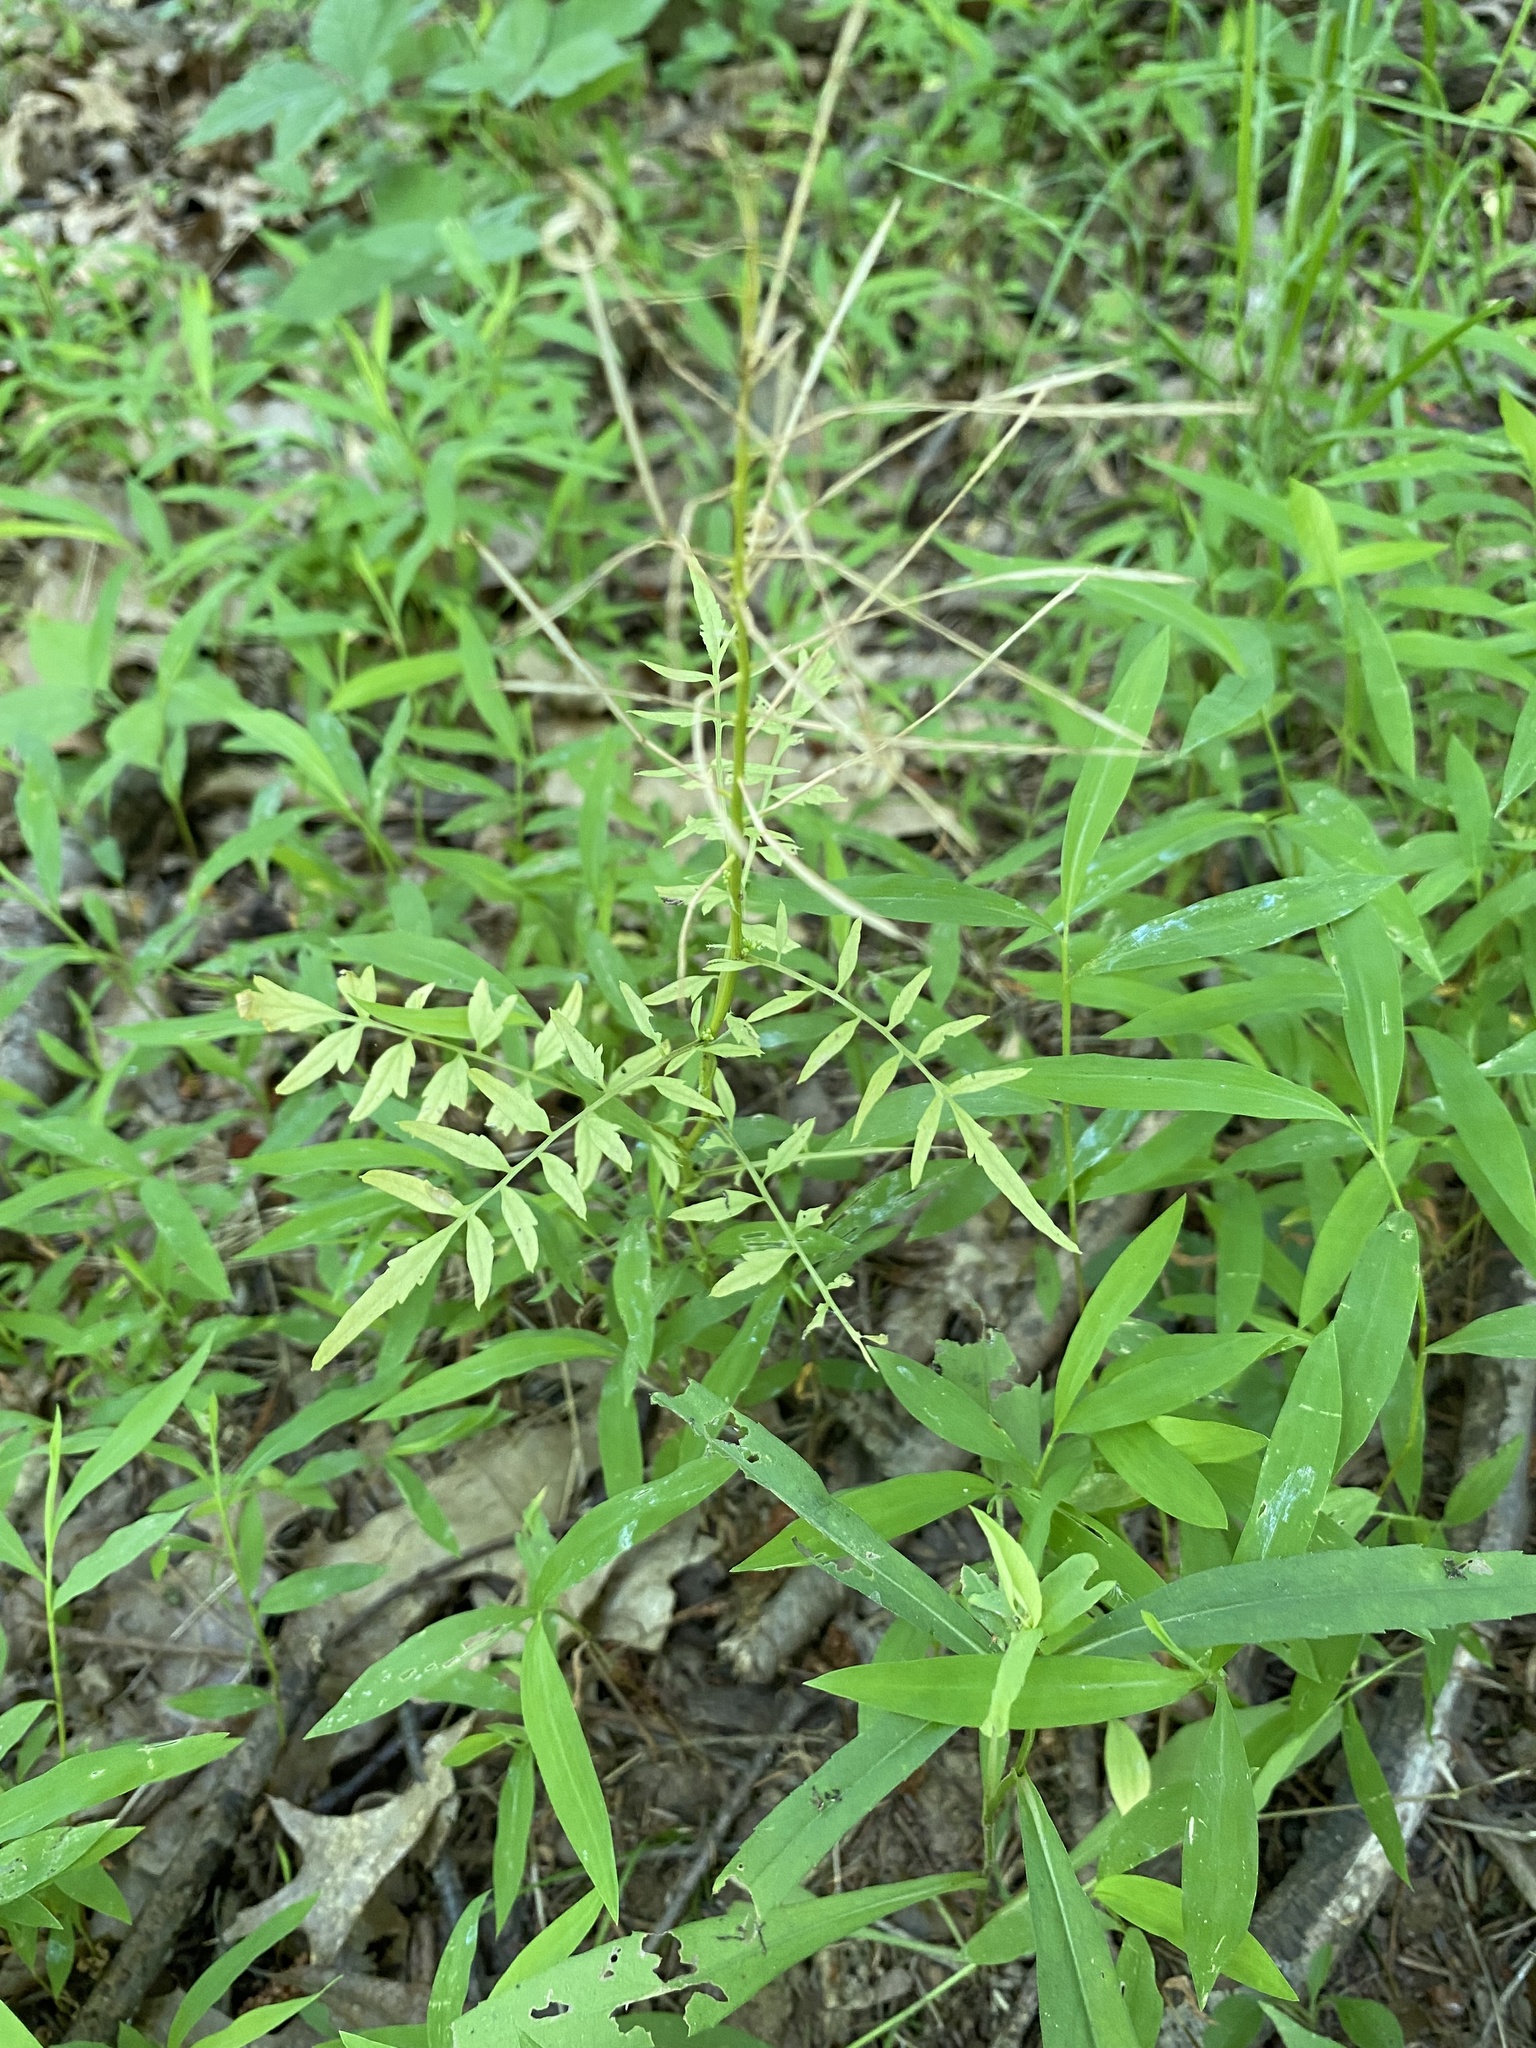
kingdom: Plantae
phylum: Tracheophyta
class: Magnoliopsida
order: Brassicales
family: Brassicaceae
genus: Cardamine
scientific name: Cardamine impatiens
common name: Narrow-leaved bitter-cress
